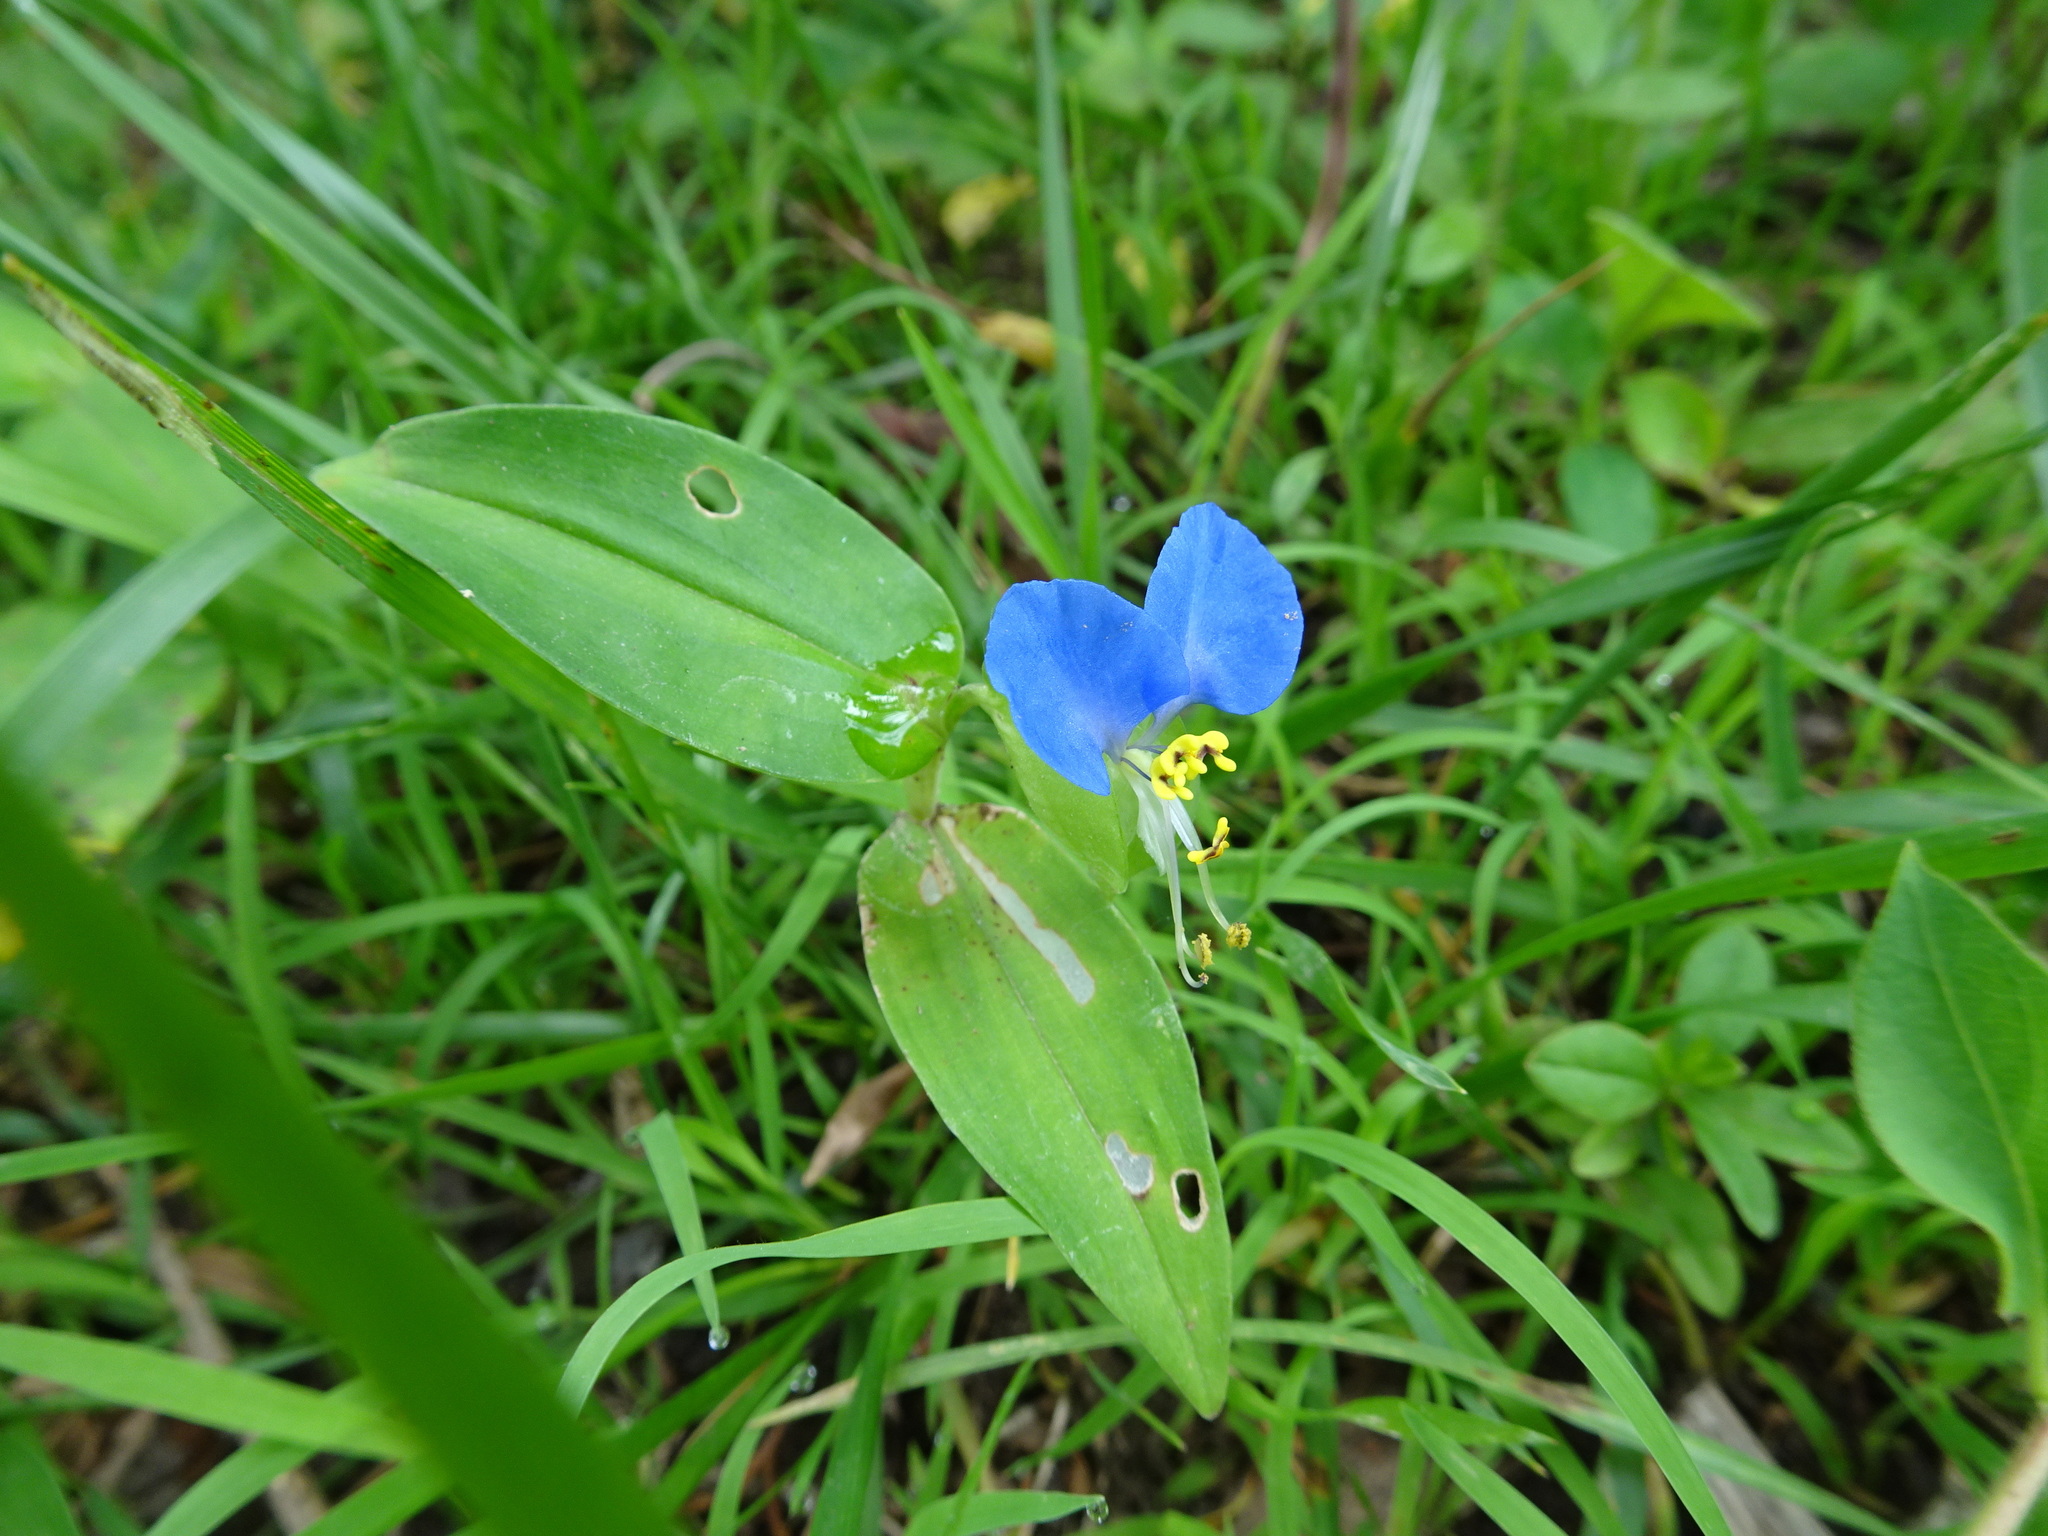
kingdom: Plantae
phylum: Tracheophyta
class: Liliopsida
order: Commelinales
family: Commelinaceae
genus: Commelina
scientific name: Commelina communis
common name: Asiatic dayflower
